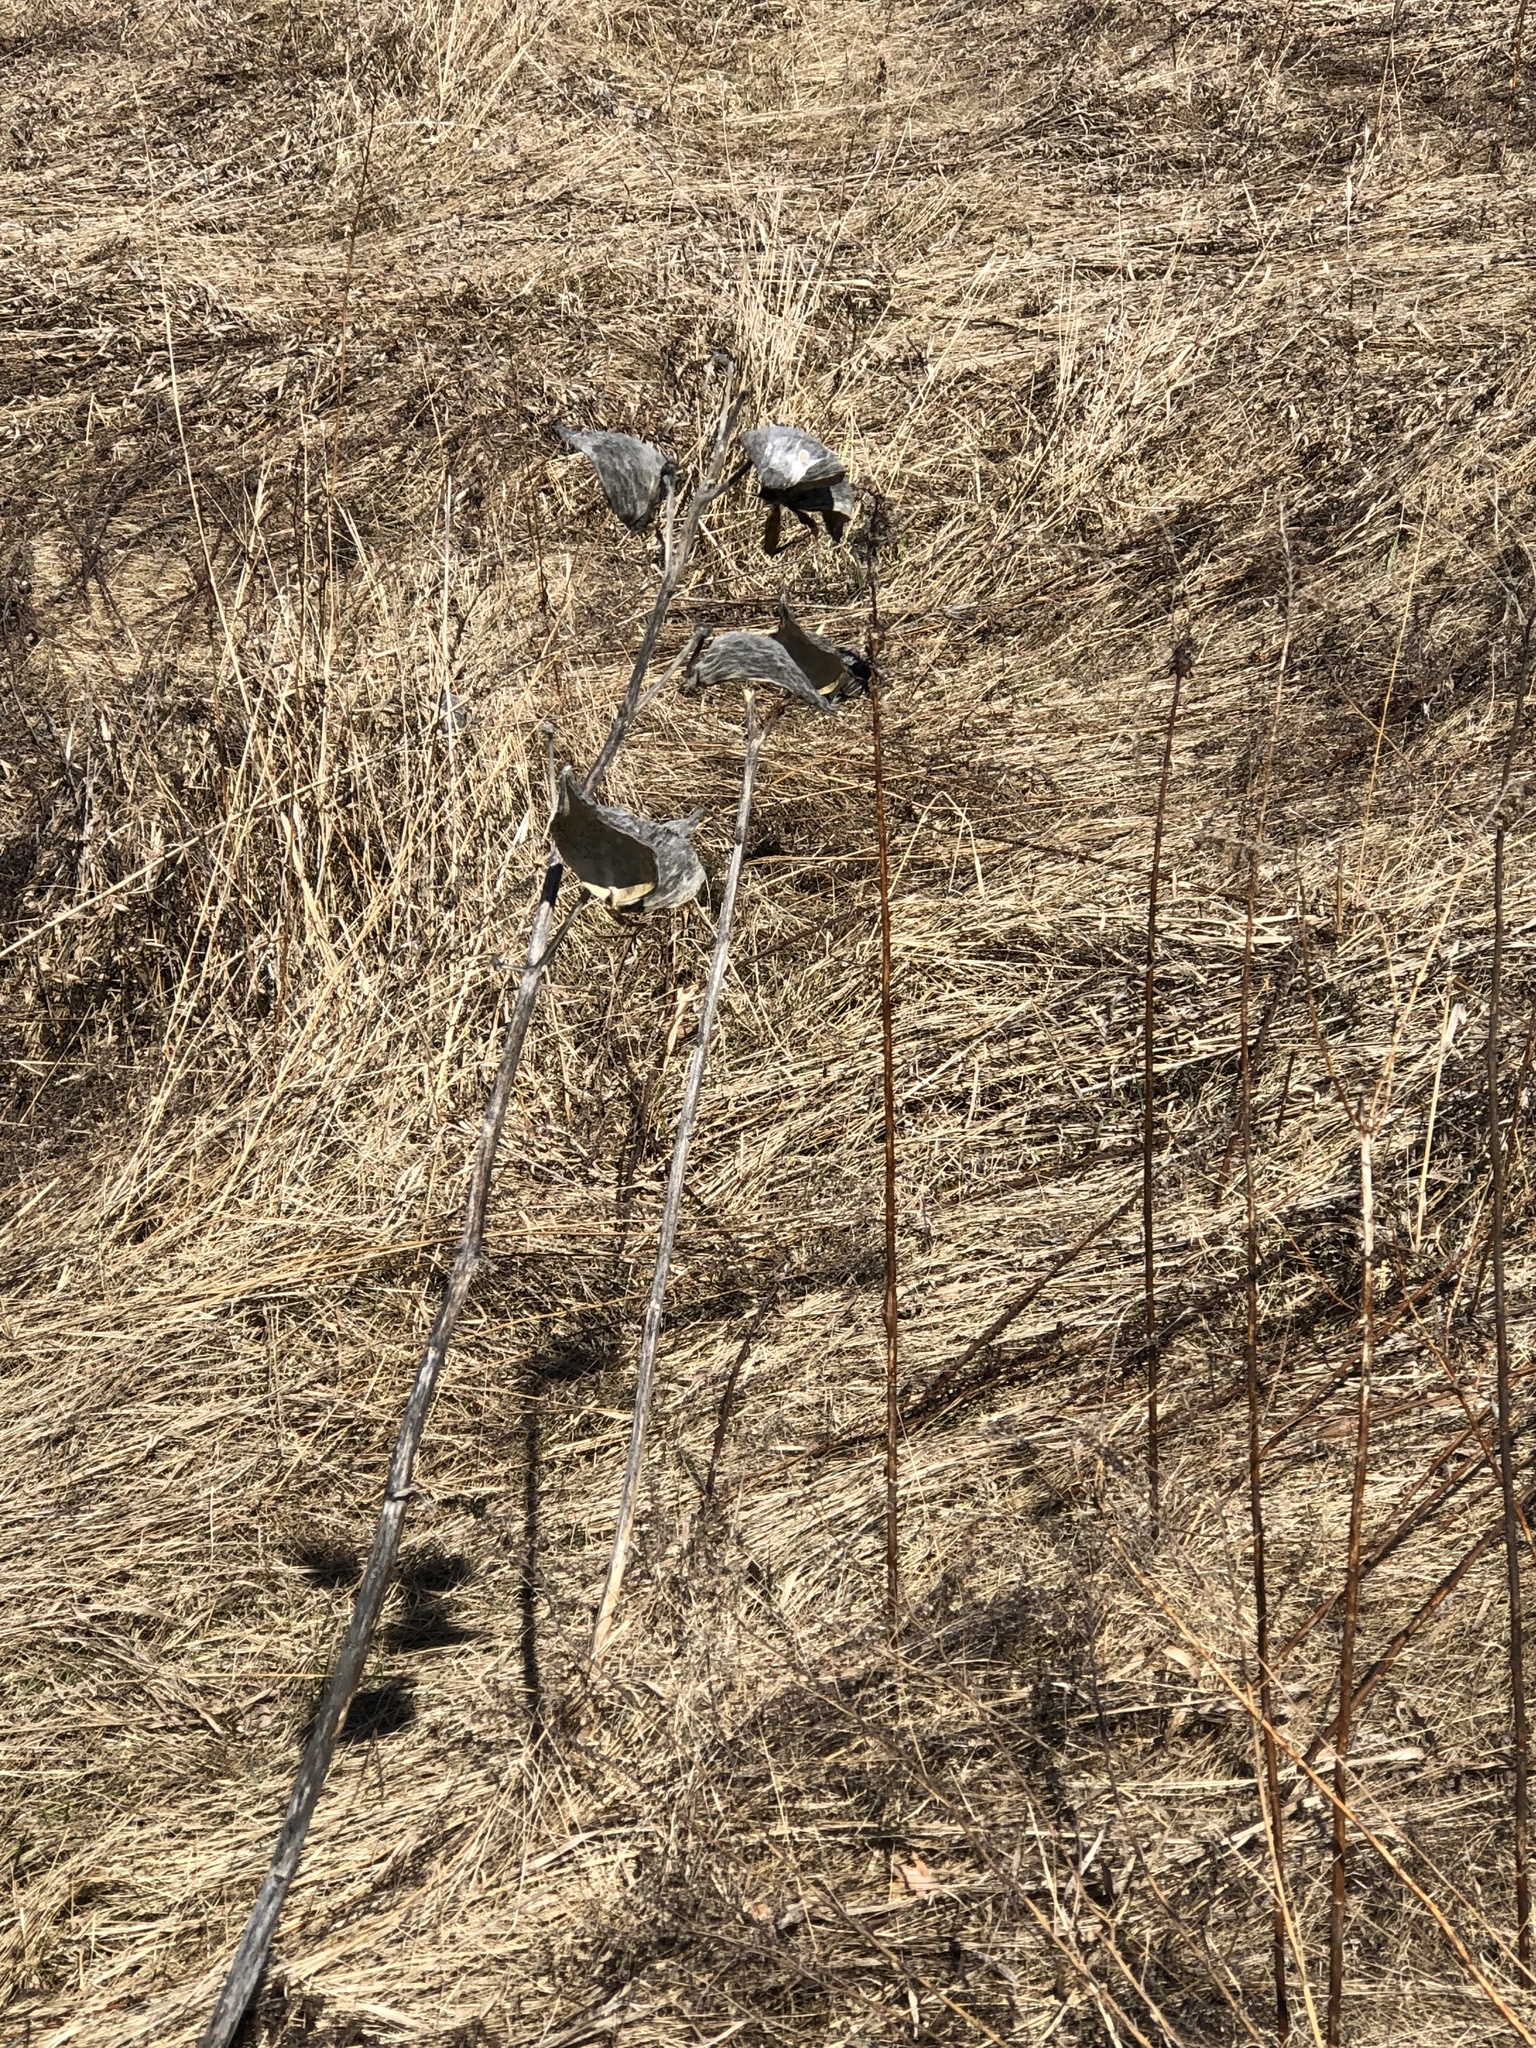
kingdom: Plantae
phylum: Tracheophyta
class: Magnoliopsida
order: Gentianales
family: Apocynaceae
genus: Asclepias
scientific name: Asclepias syriaca
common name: Common milkweed
